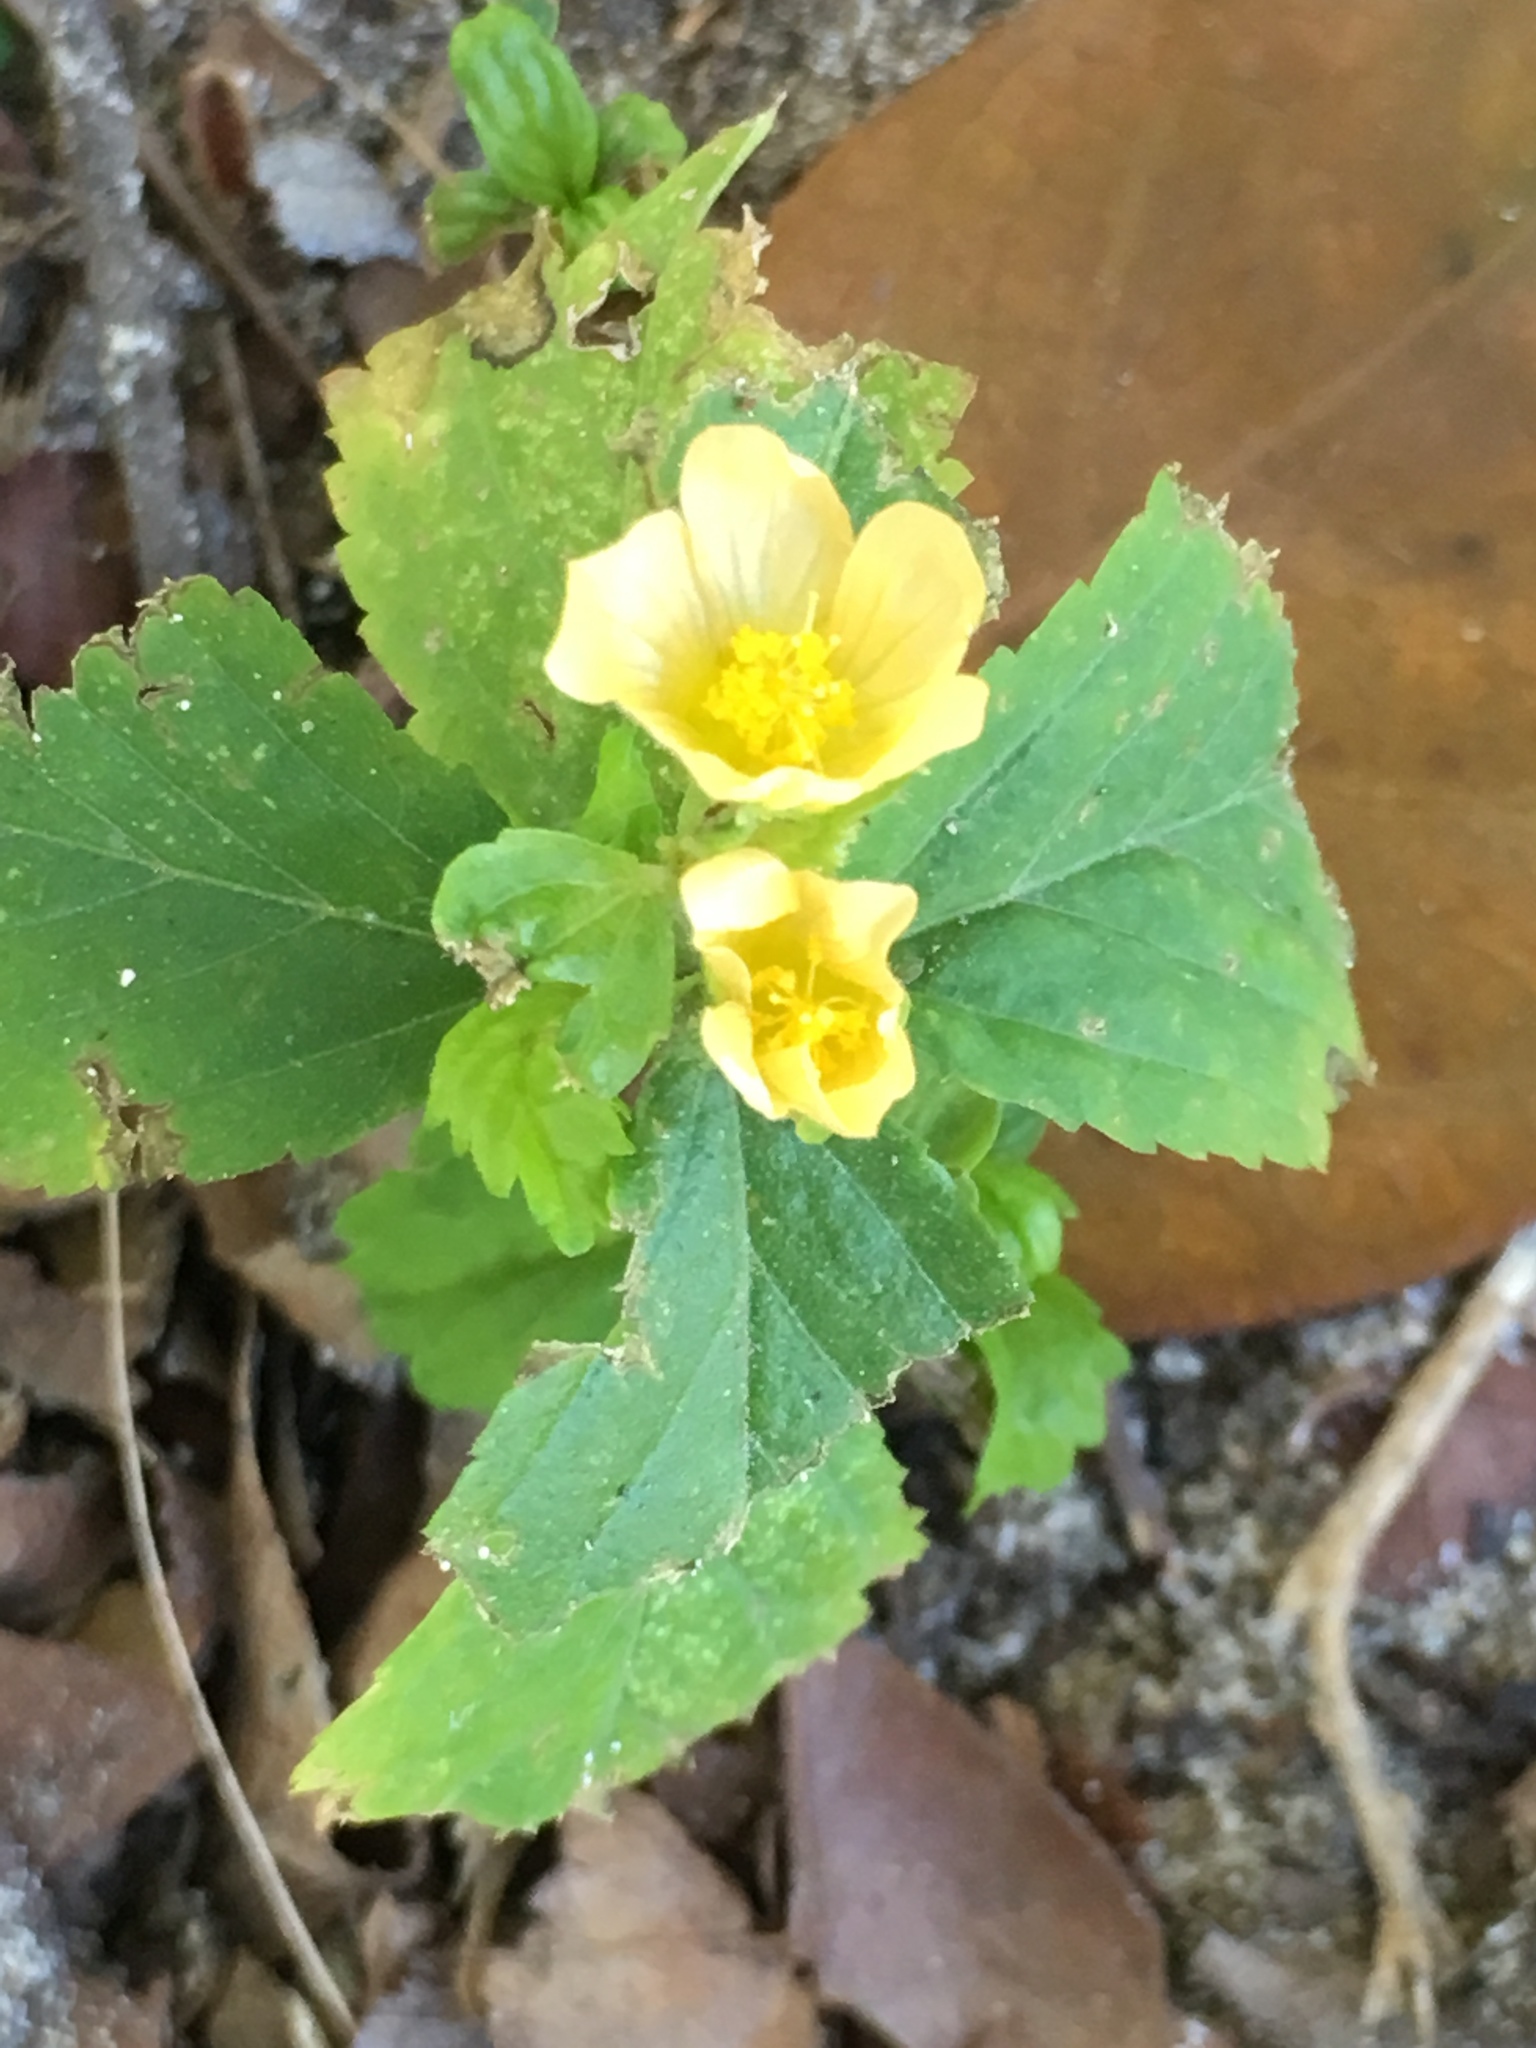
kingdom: Plantae
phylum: Tracheophyta
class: Magnoliopsida
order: Malvales
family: Malvaceae
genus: Sida
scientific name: Sida ulmifolia
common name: Broom weed
